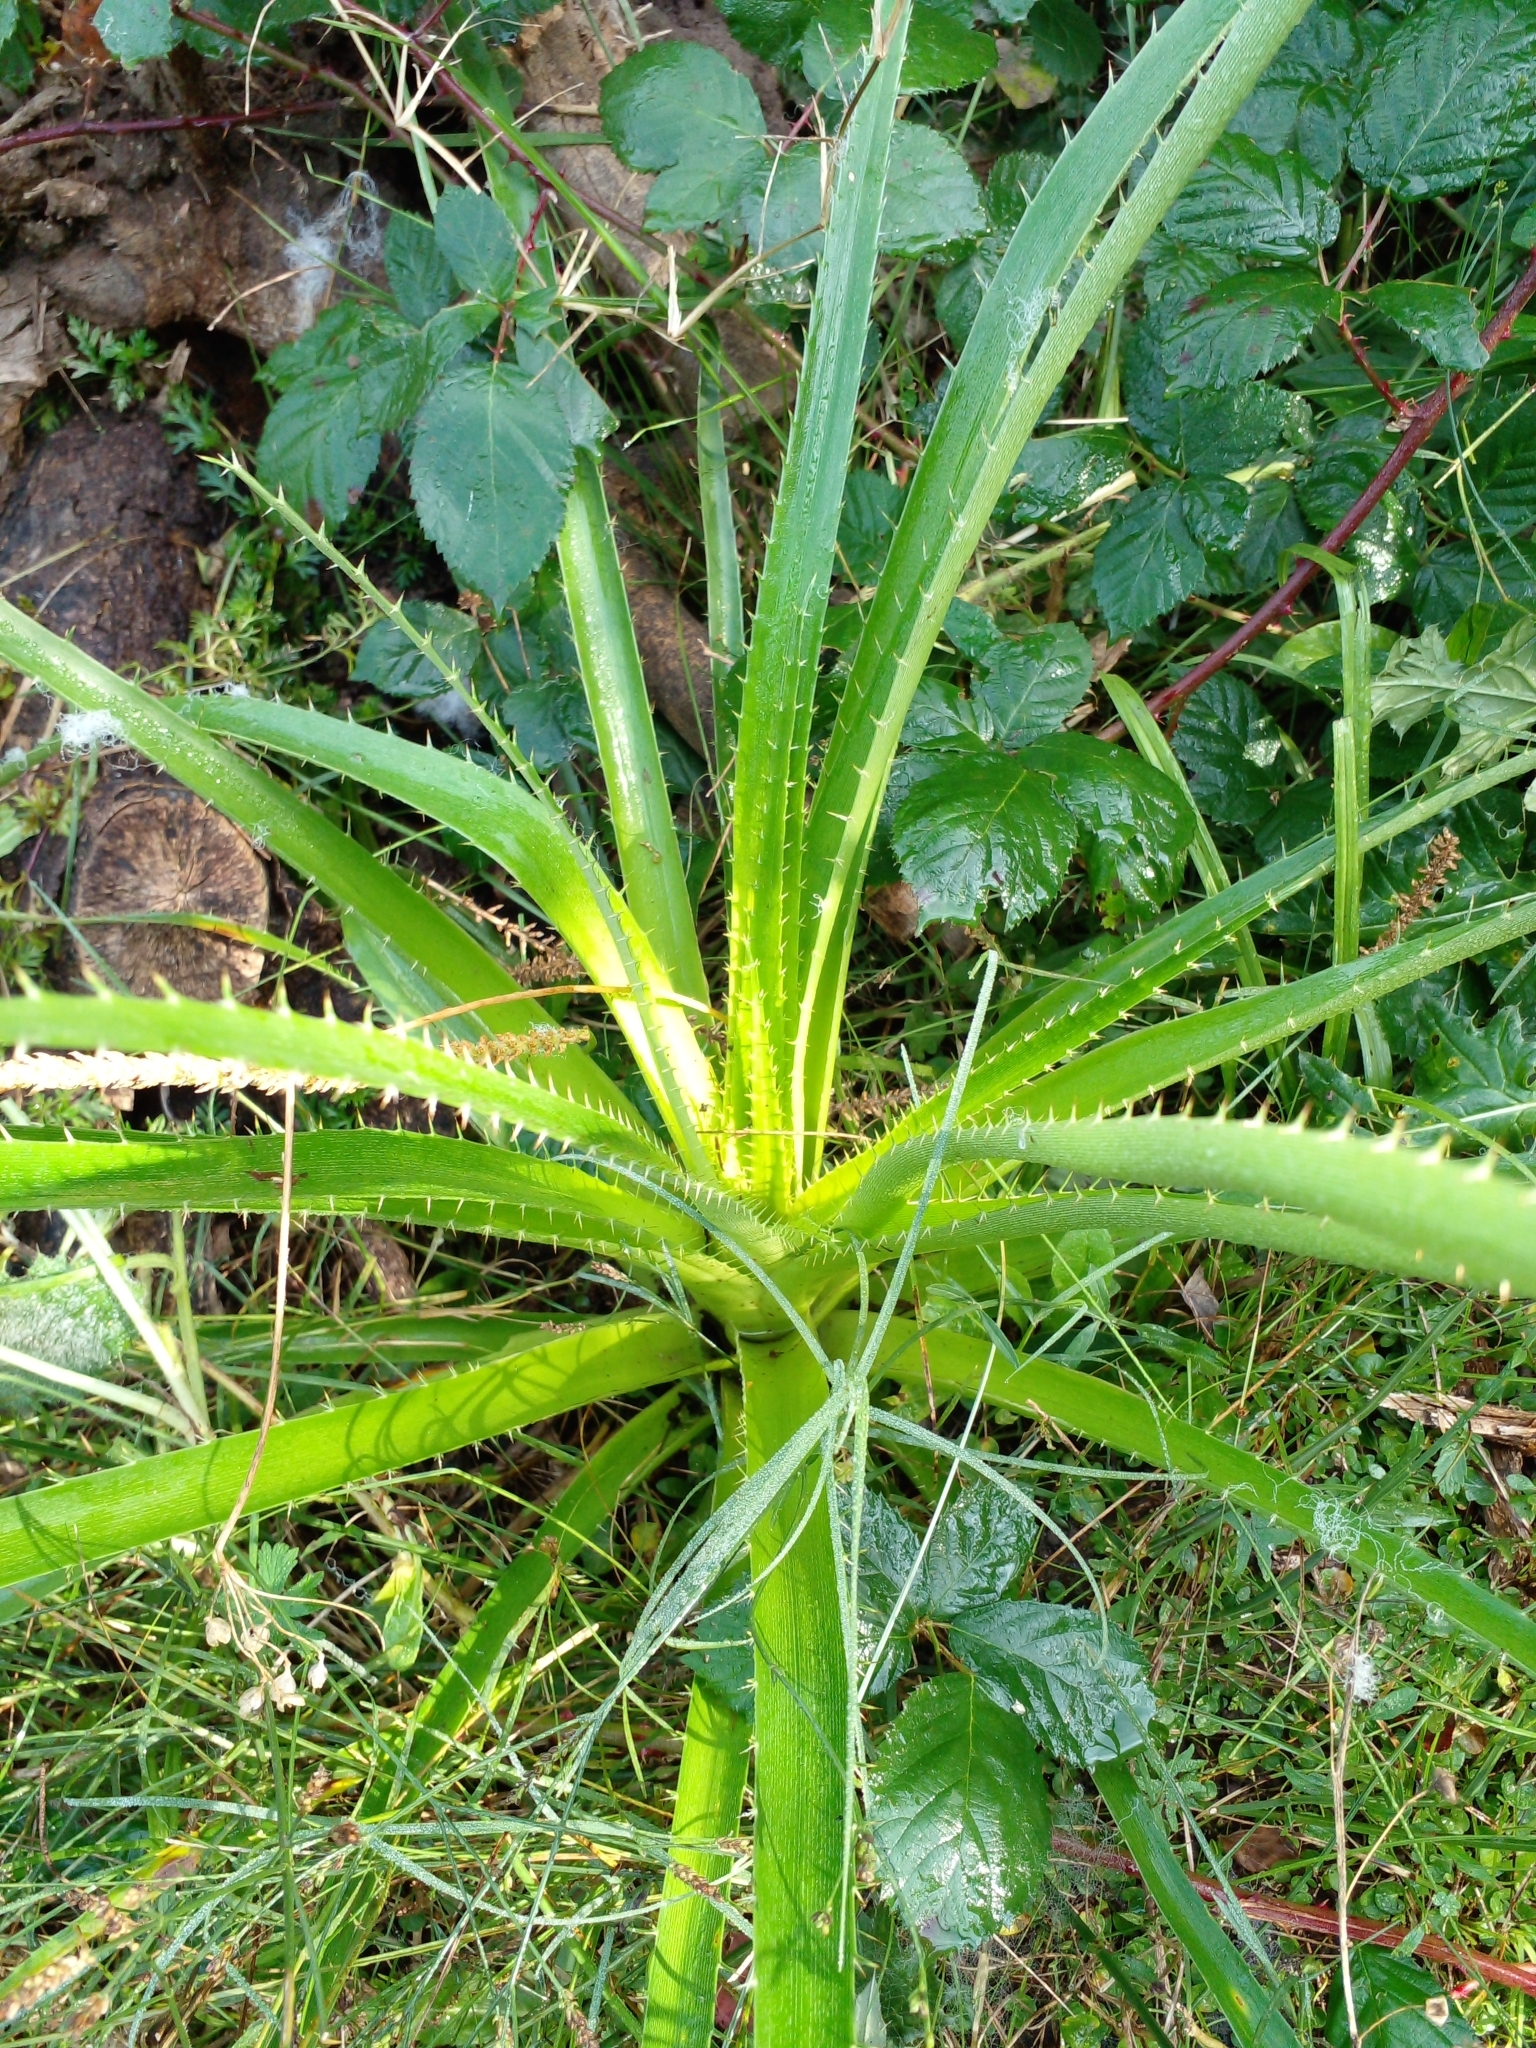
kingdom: Plantae
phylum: Tracheophyta
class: Magnoliopsida
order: Apiales
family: Apiaceae
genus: Eryngium
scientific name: Eryngium horridum
